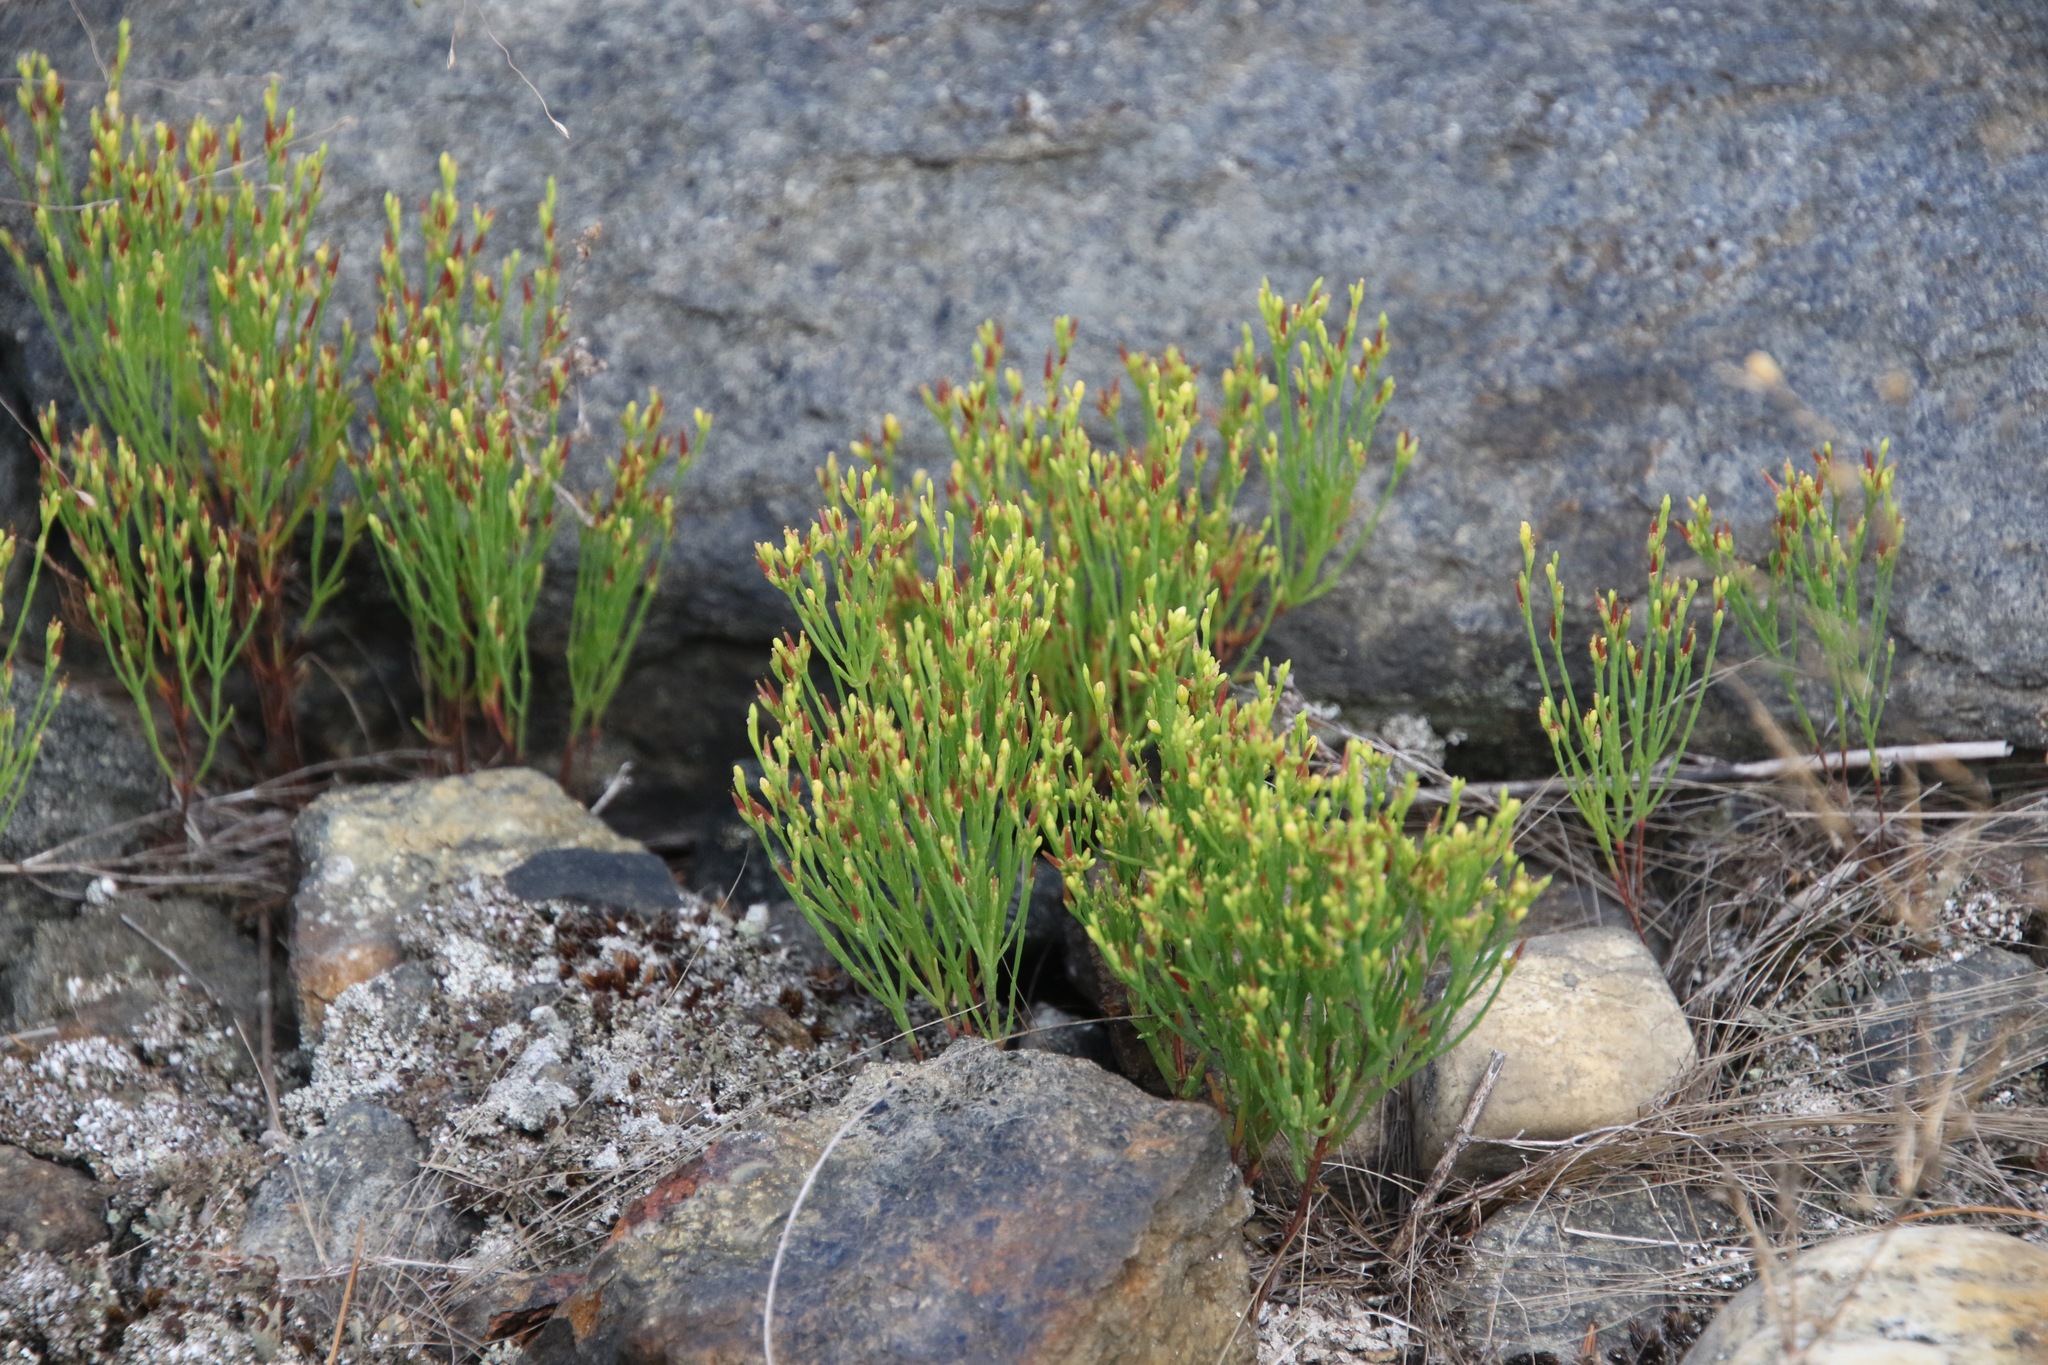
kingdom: Plantae
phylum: Tracheophyta
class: Magnoliopsida
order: Malpighiales
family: Hypericaceae
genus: Hypericum
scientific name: Hypericum gentianoides
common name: Gentian-leaved st. john's-wort
